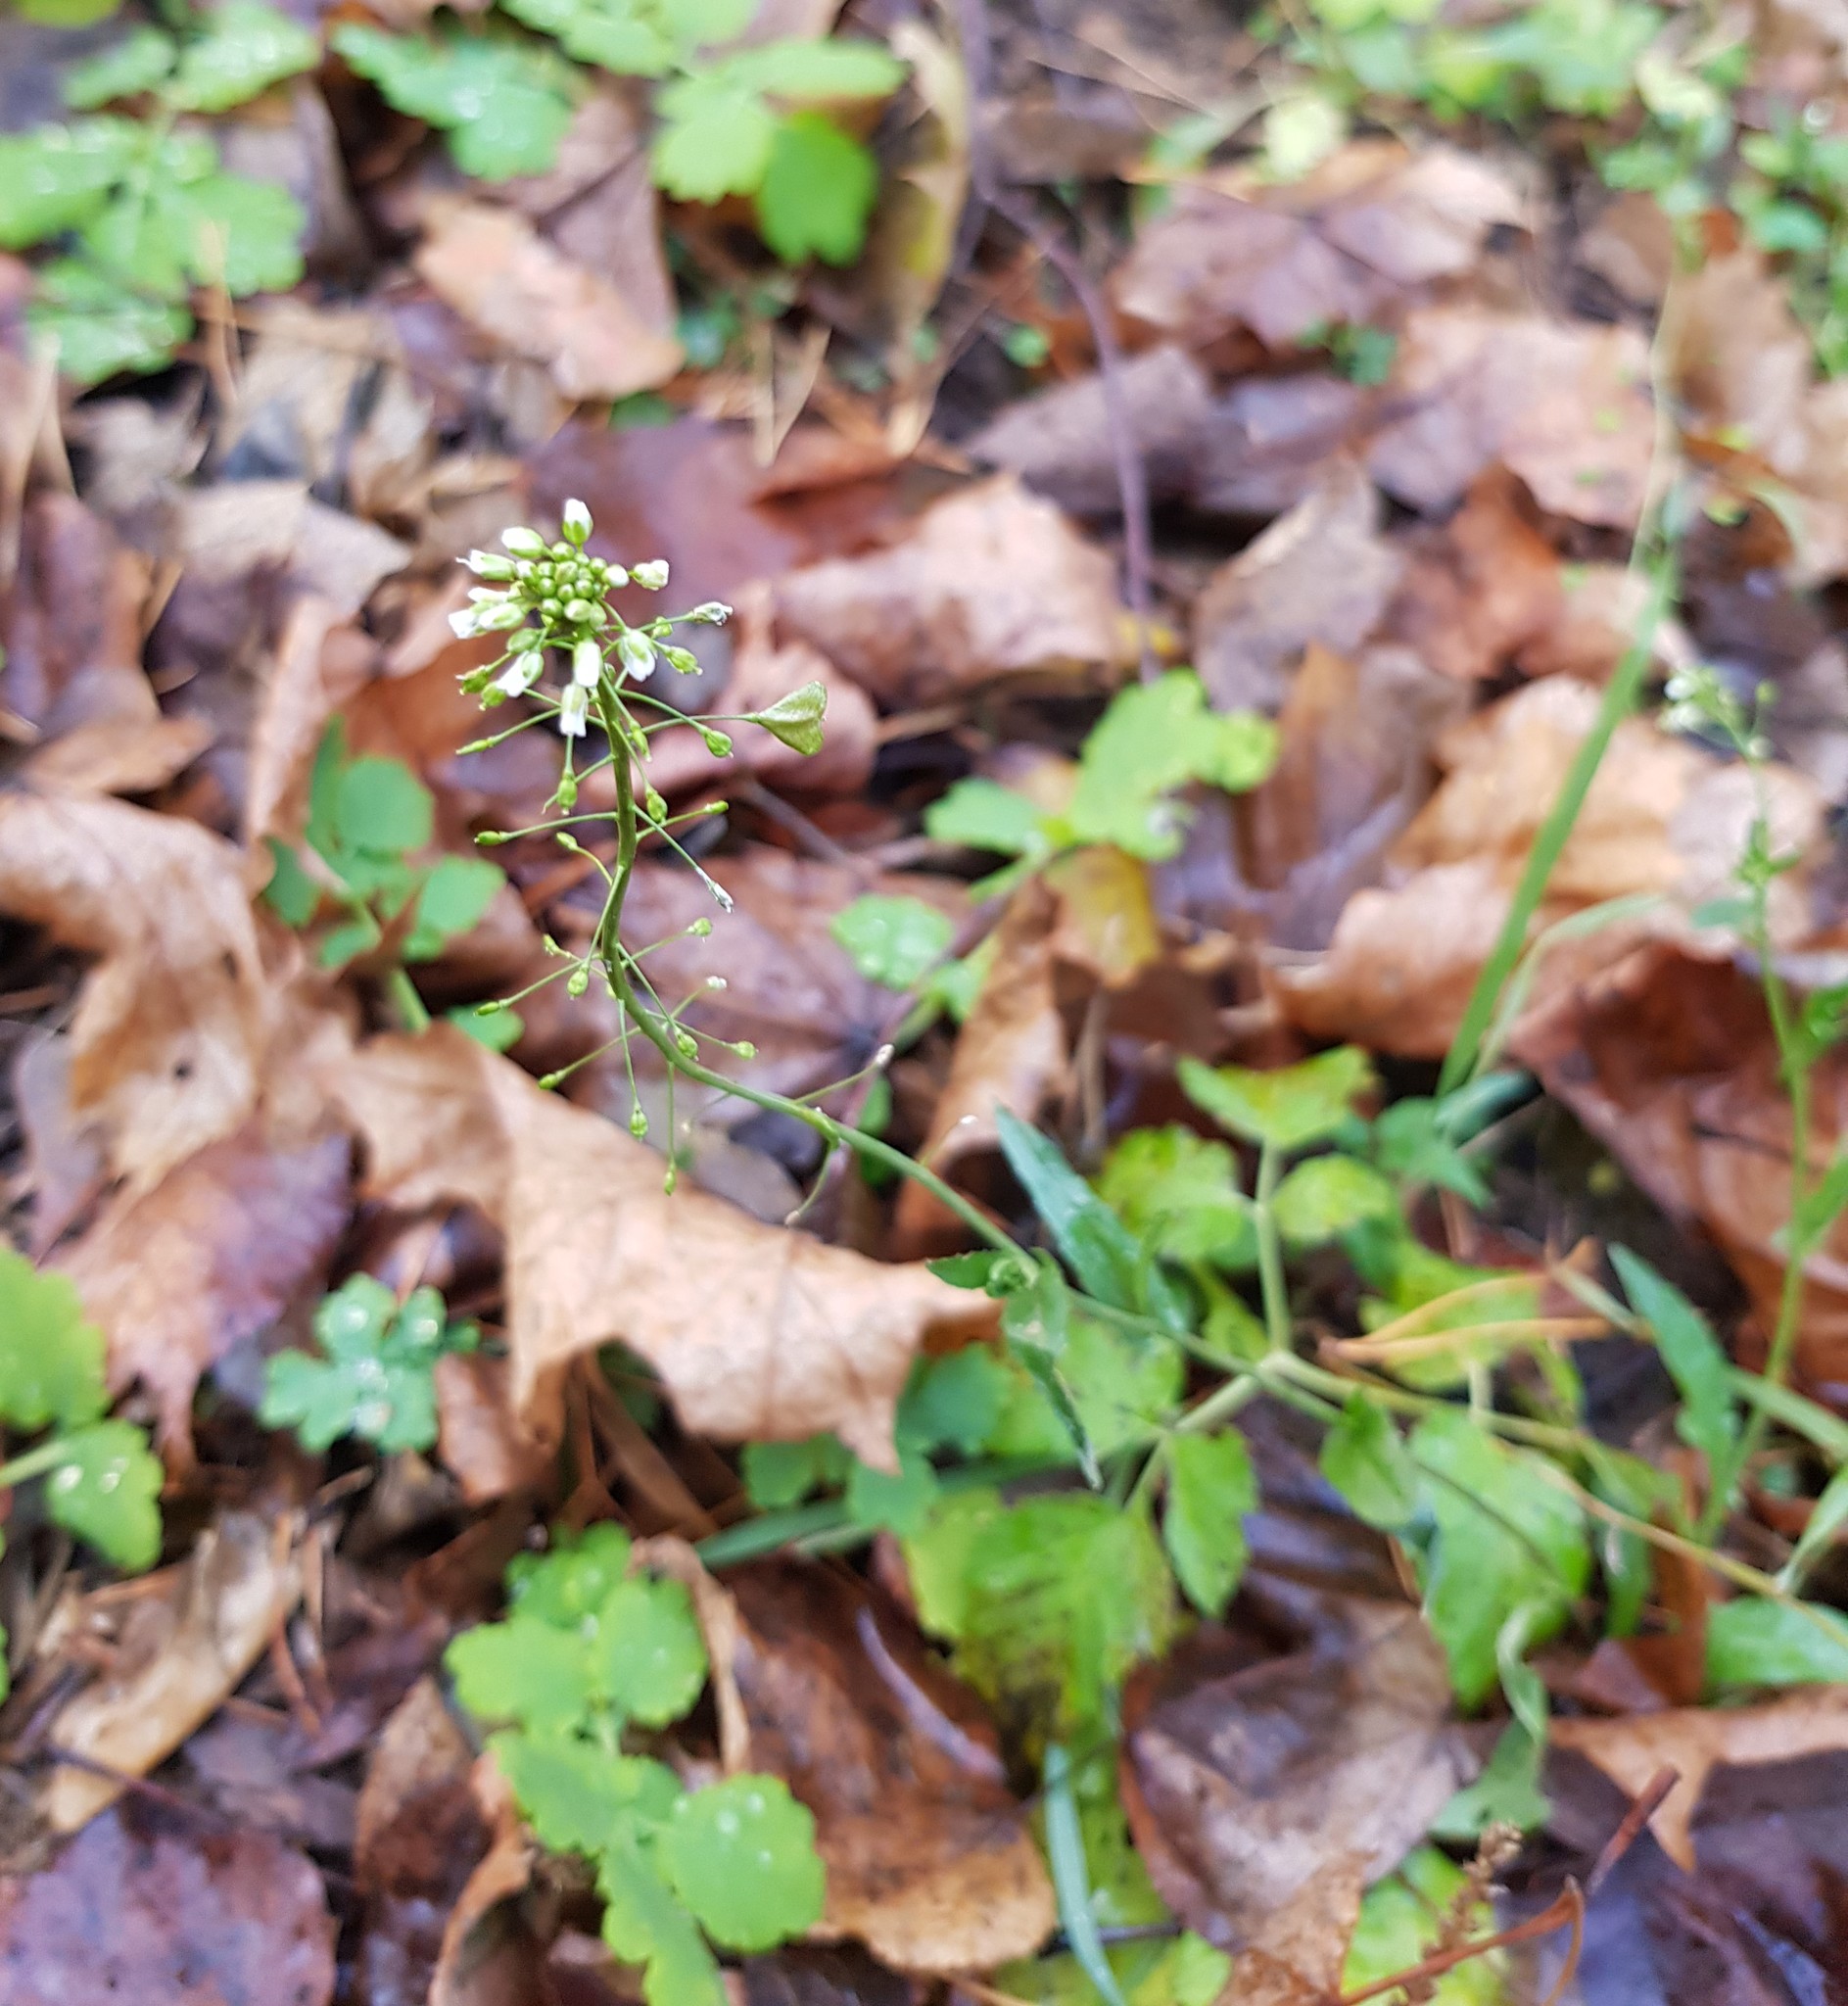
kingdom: Plantae
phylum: Tracheophyta
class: Magnoliopsida
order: Brassicales
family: Brassicaceae
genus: Capsella
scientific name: Capsella bursa-pastoris
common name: Shepherd's purse
